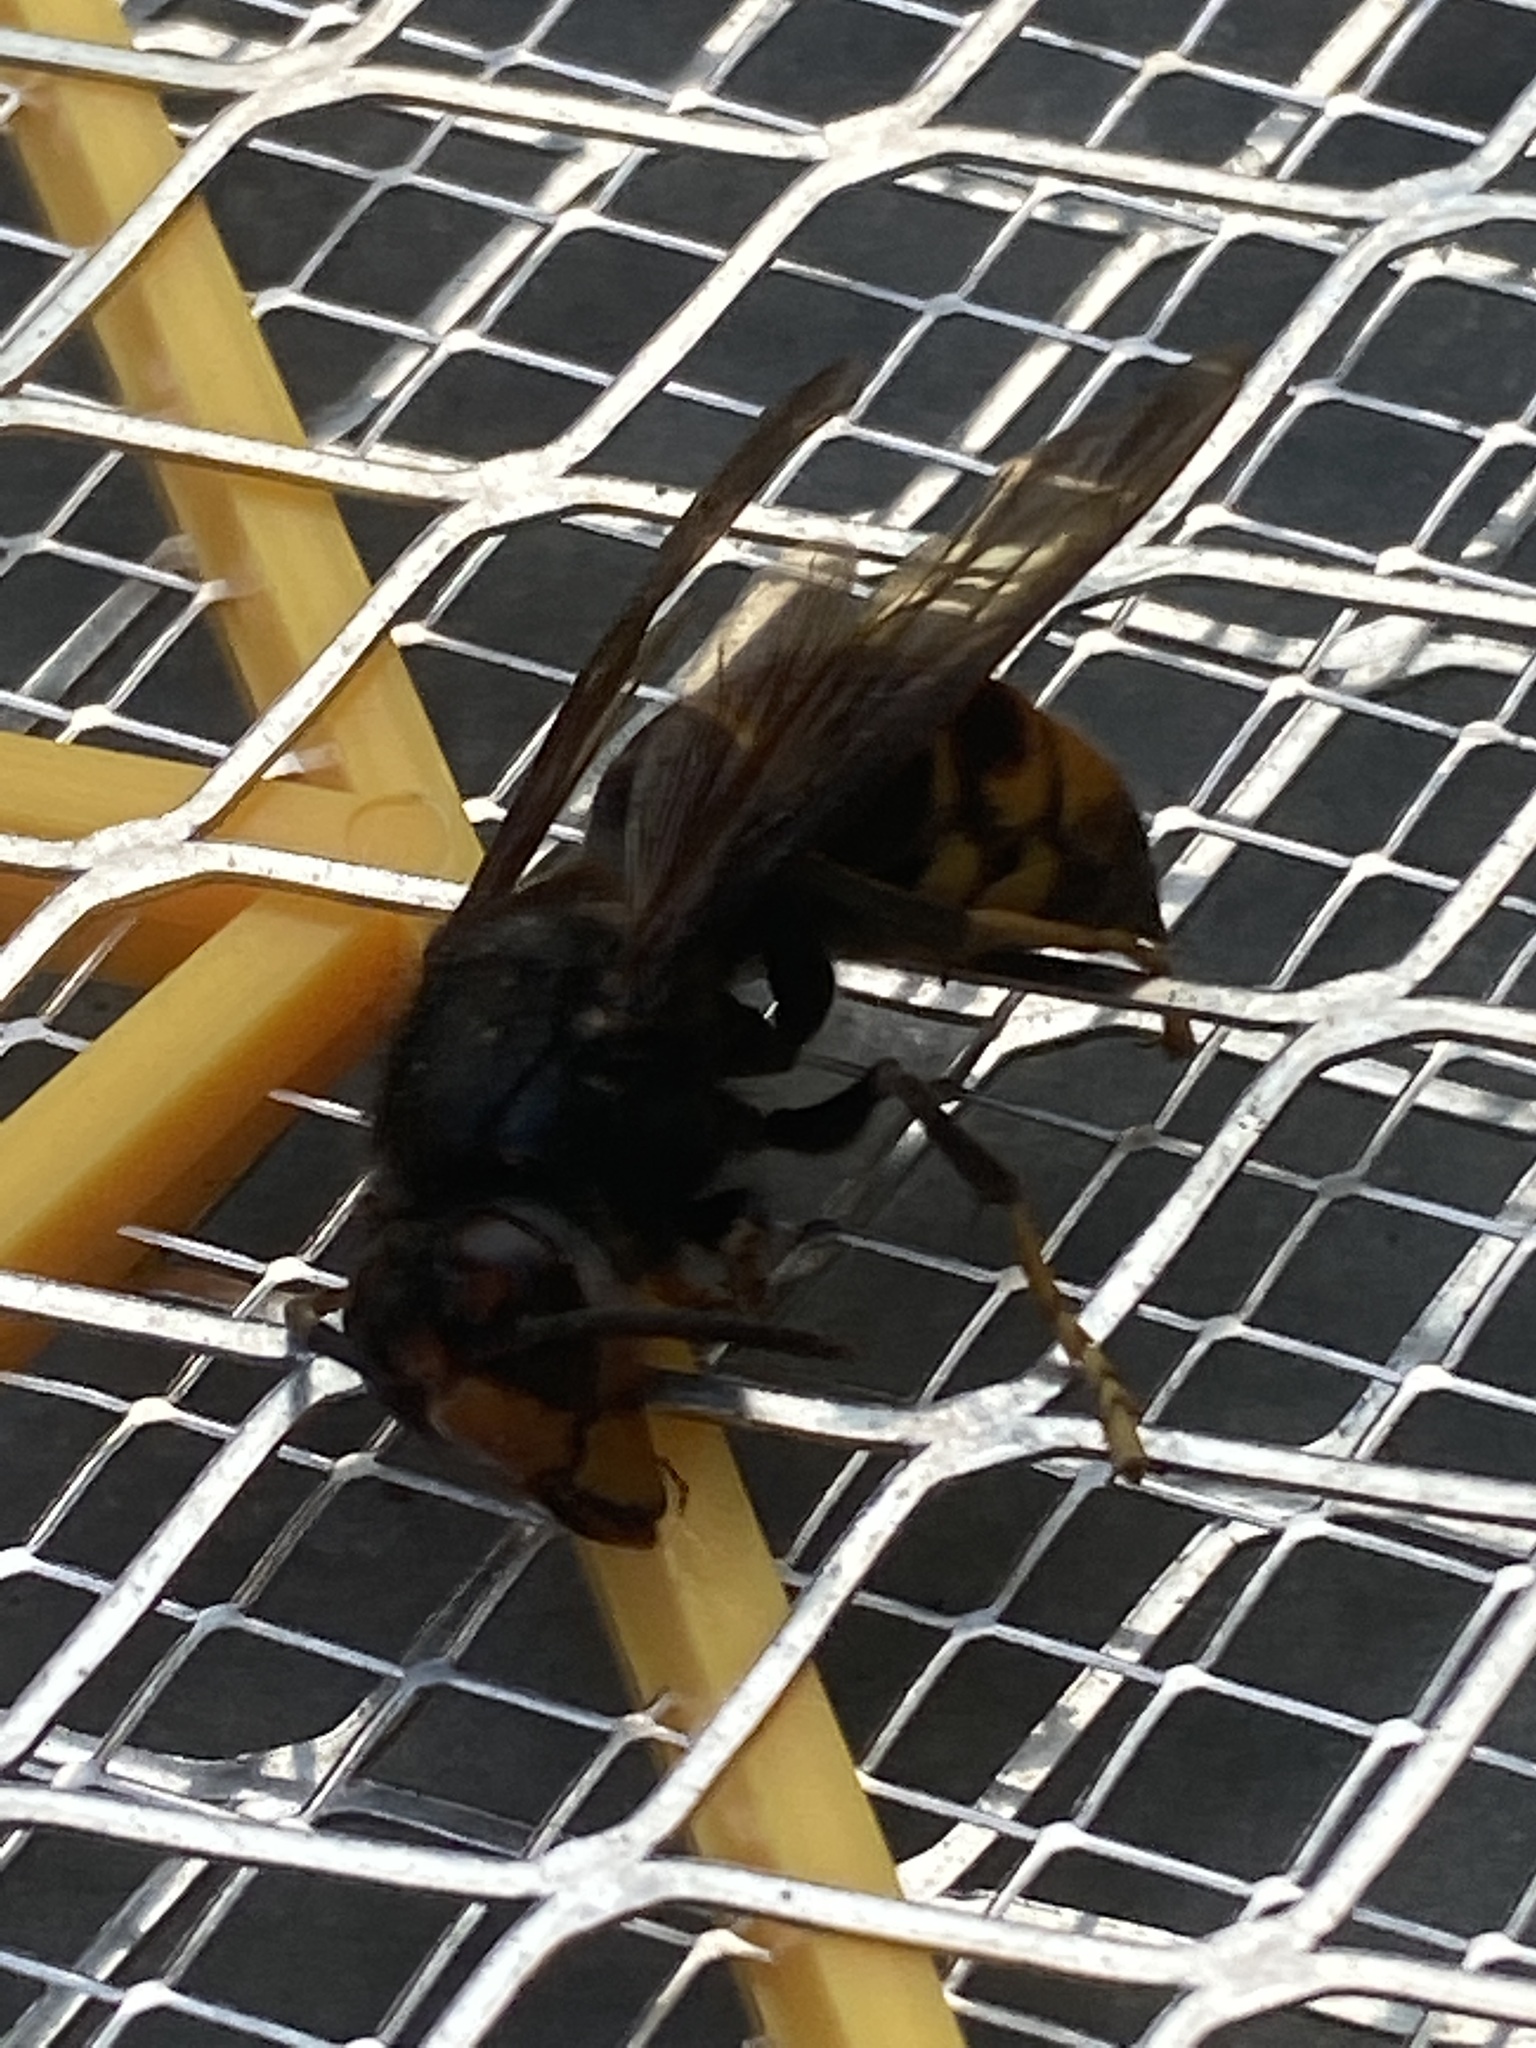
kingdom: Animalia
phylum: Arthropoda
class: Insecta
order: Hymenoptera
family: Vespidae
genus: Vespa
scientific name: Vespa velutina
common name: Asian hornet
